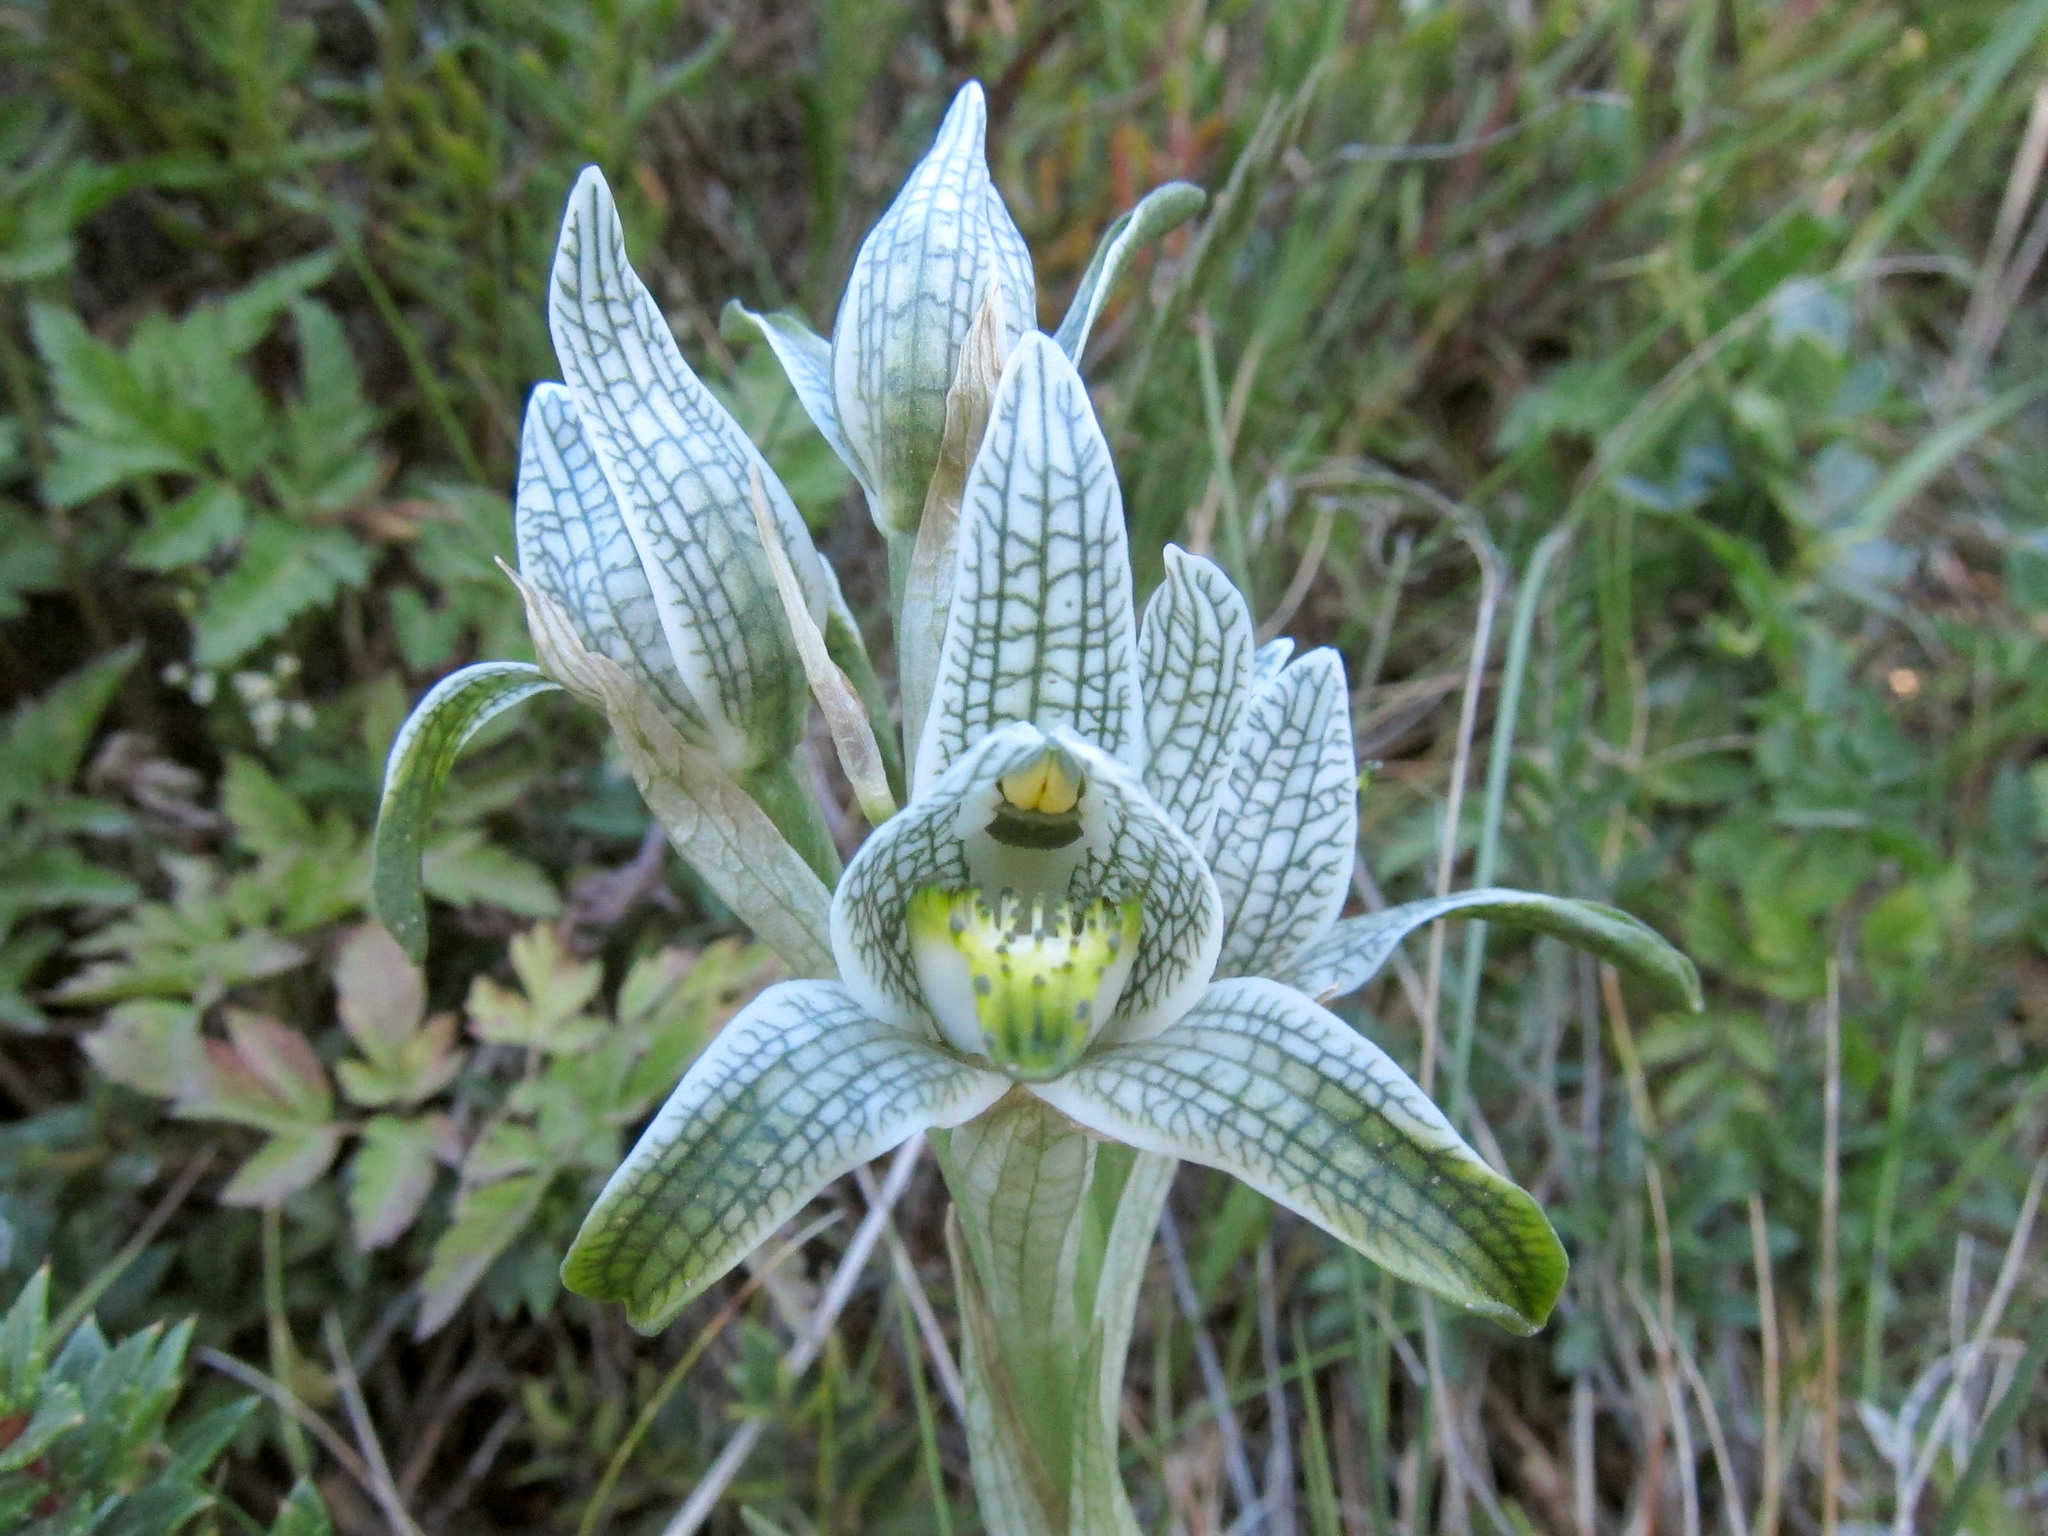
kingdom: Plantae
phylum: Tracheophyta
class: Liliopsida
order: Asparagales
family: Orchidaceae
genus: Chloraea
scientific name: Chloraea magellanica
